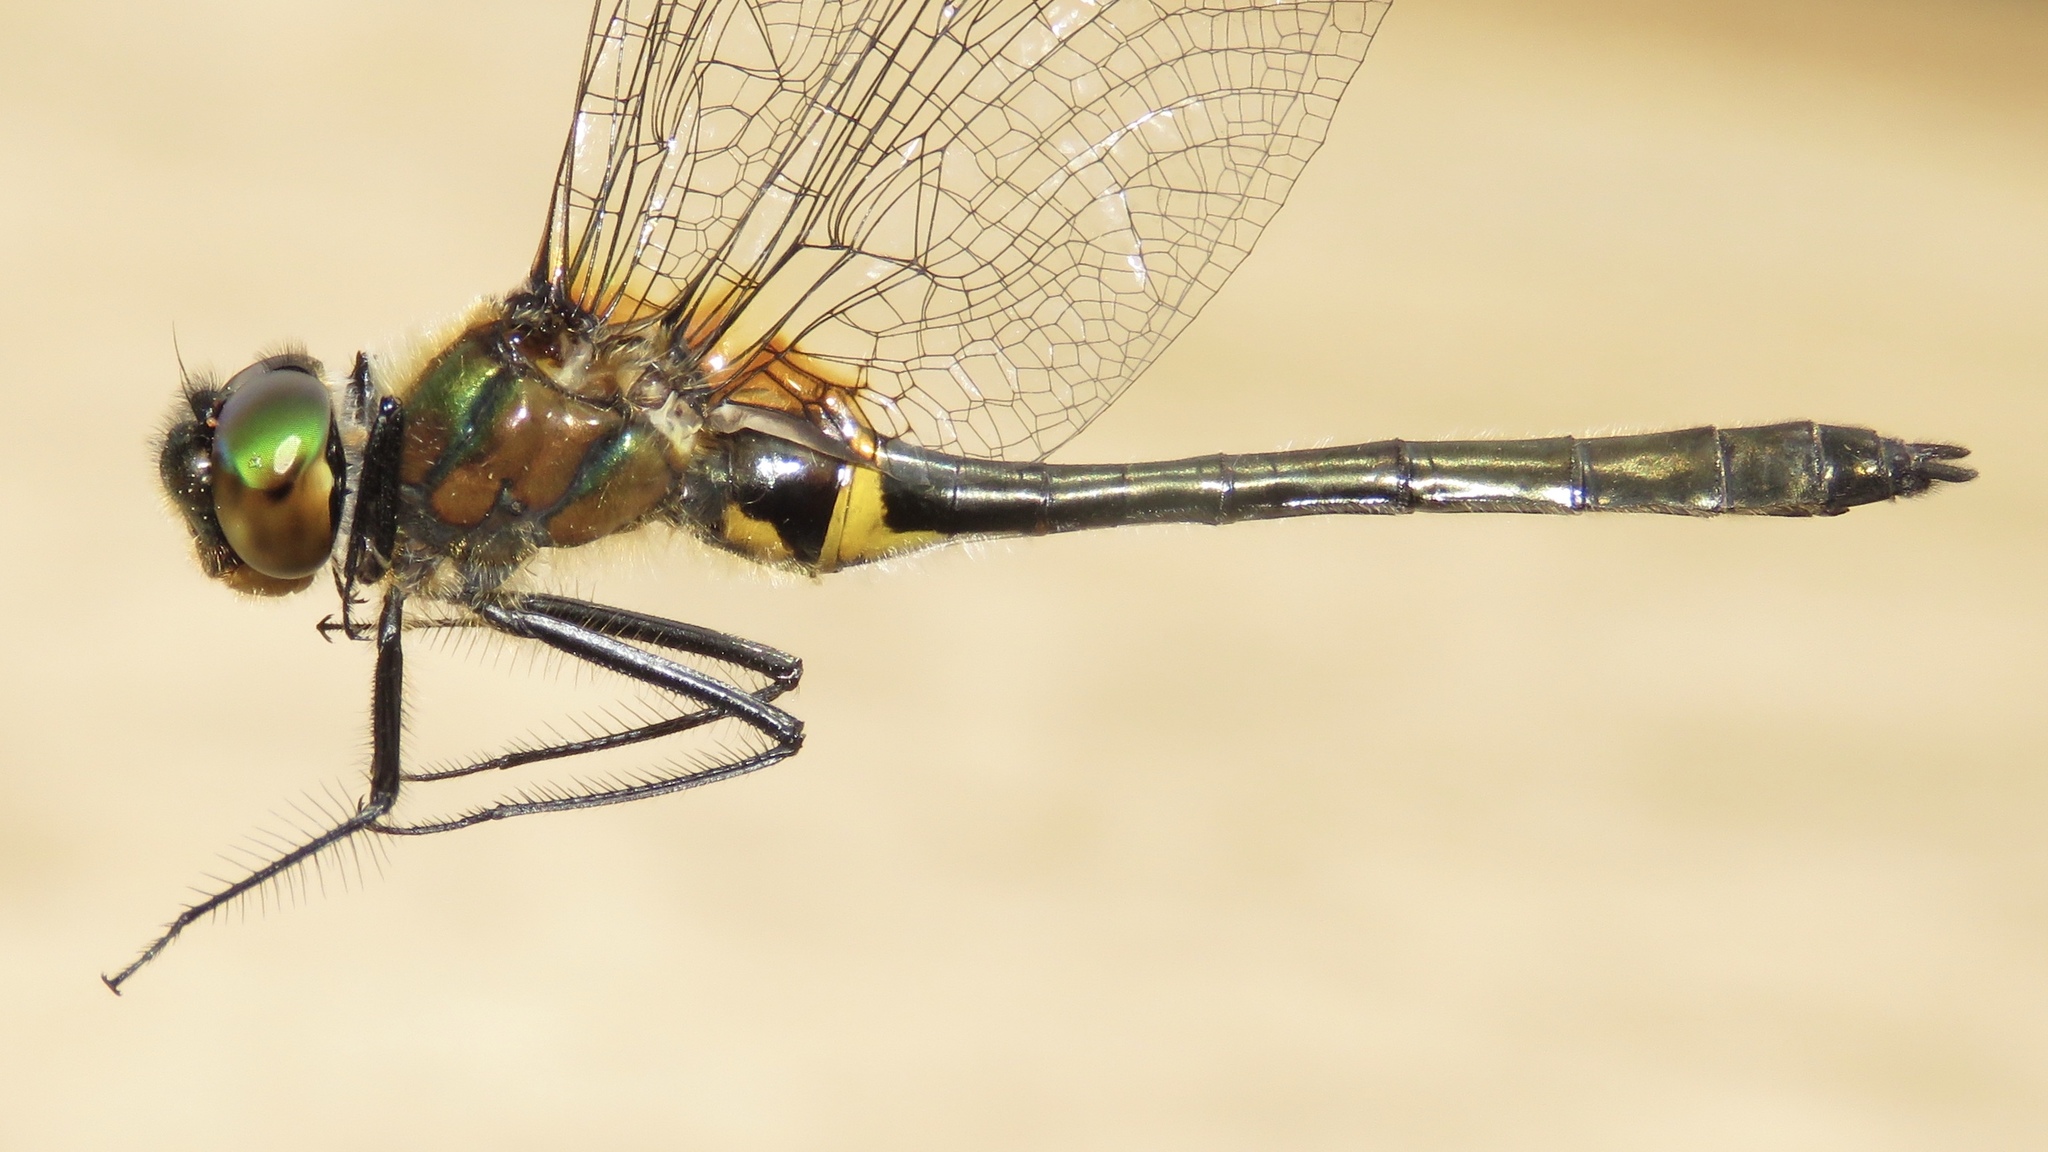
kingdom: Animalia
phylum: Arthropoda
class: Insecta
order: Odonata
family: Corduliidae
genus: Dorocordulia
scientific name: Dorocordulia libera
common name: Racket-tailed emerald
